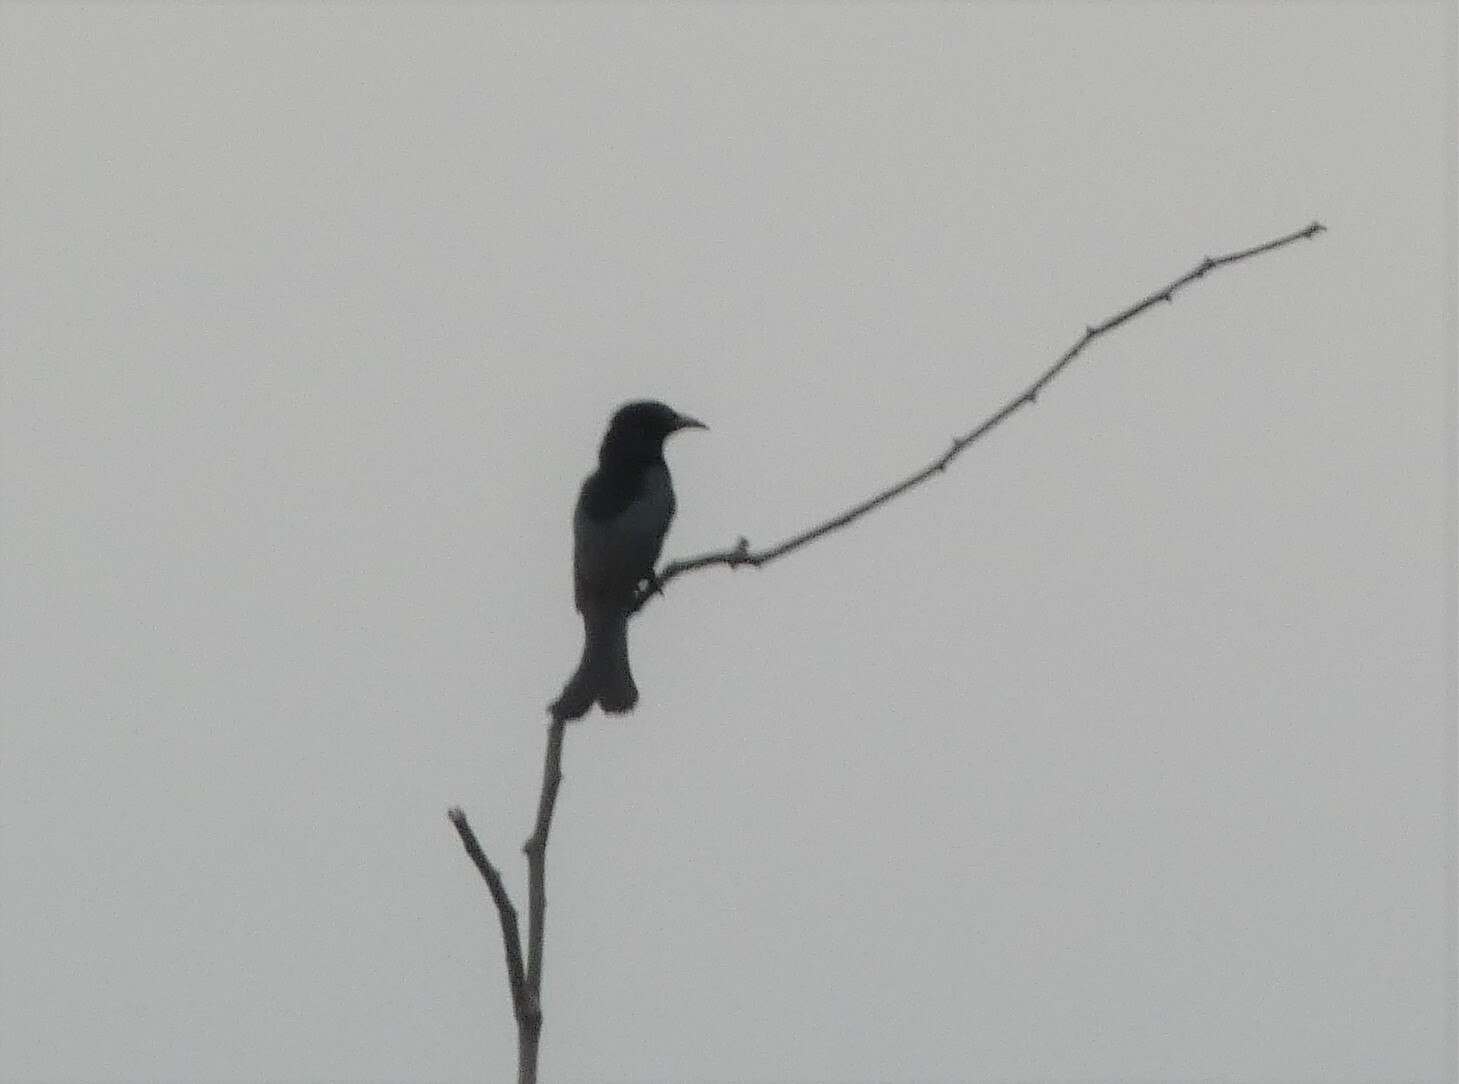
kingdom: Animalia
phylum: Chordata
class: Aves
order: Passeriformes
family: Dicruridae
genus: Dicrurus
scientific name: Dicrurus hottentottus
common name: Hair-crested drongo
